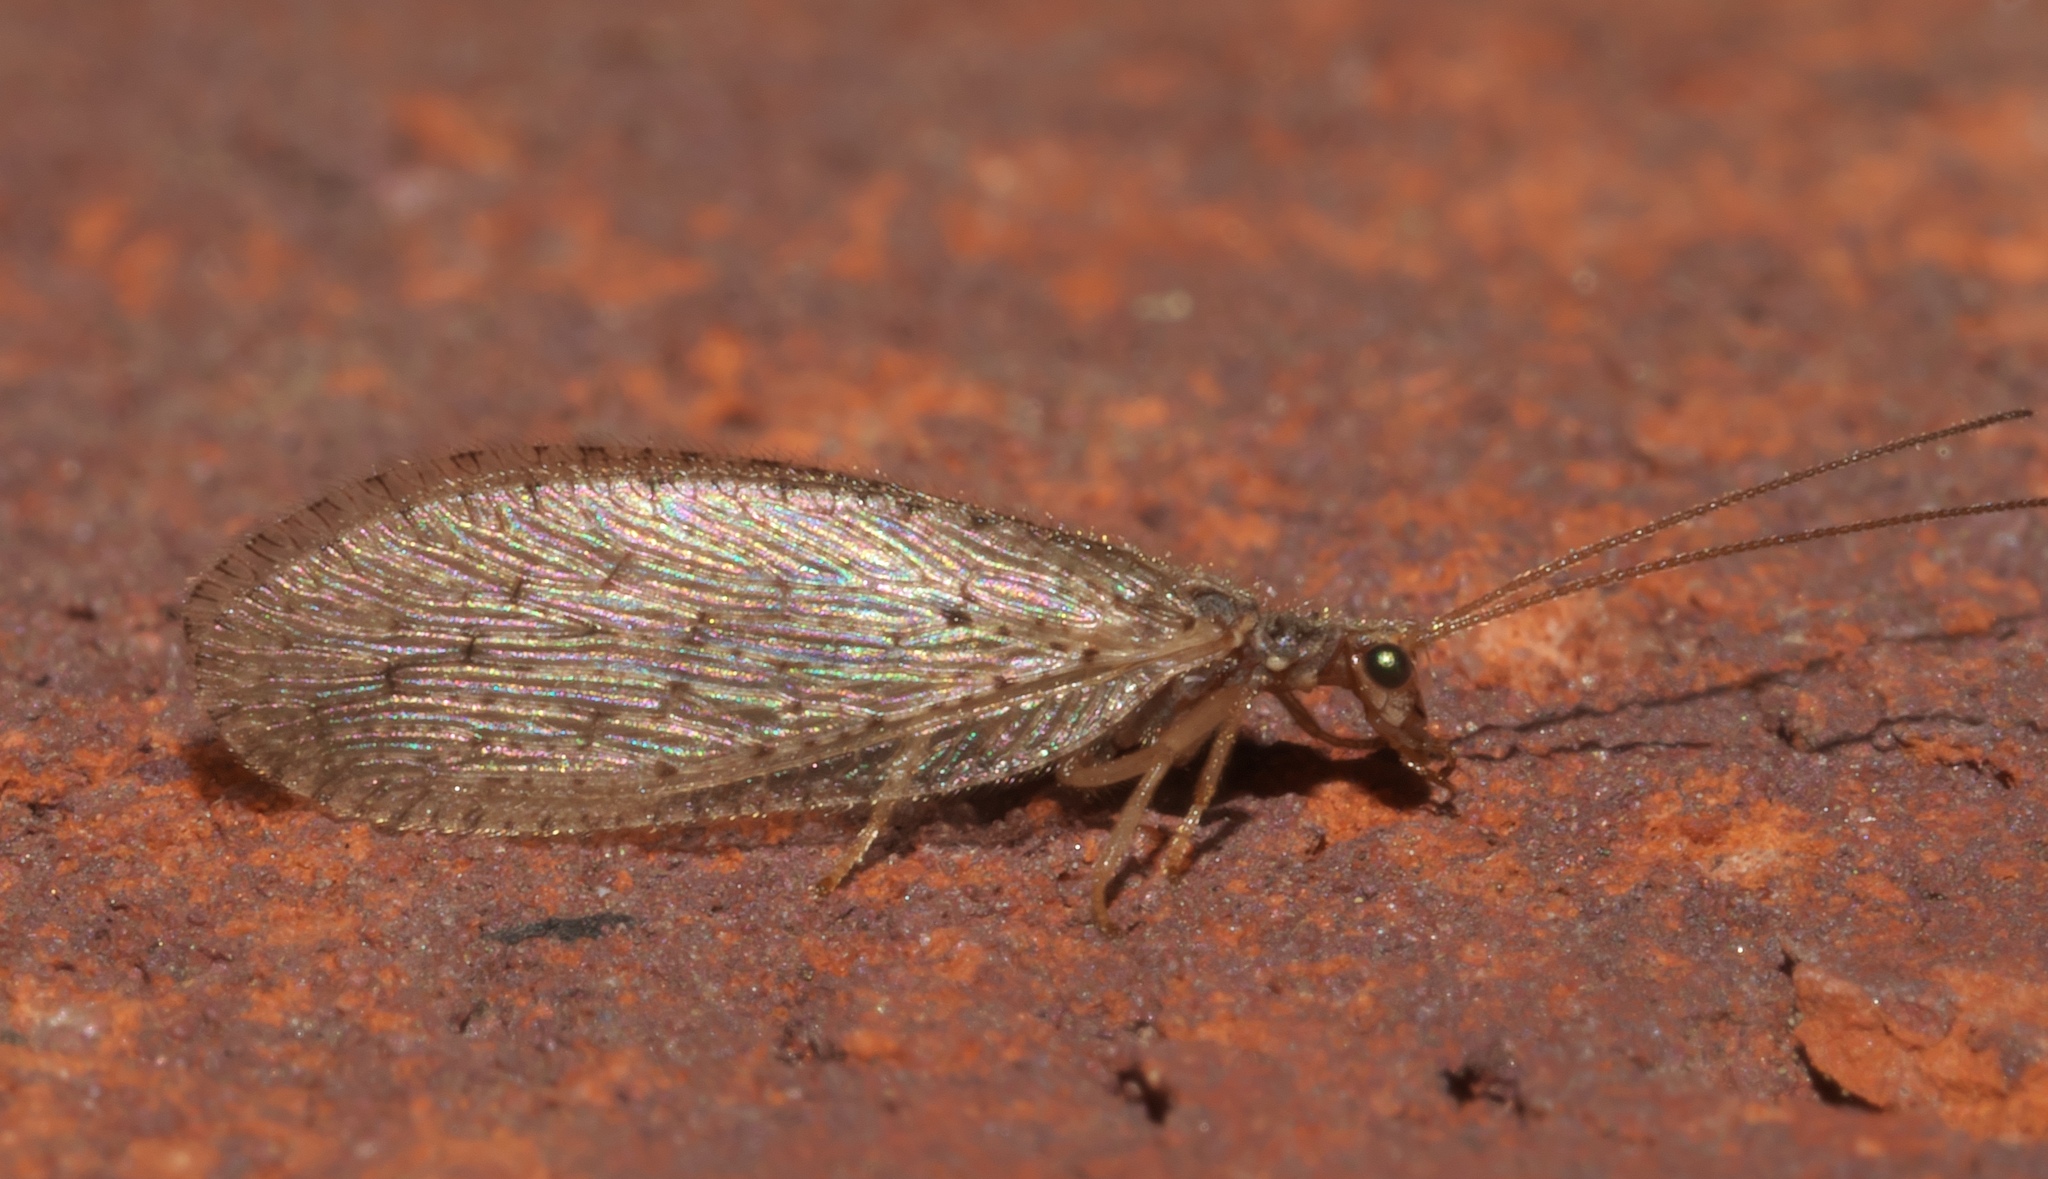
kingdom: Animalia
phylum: Arthropoda
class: Insecta
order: Neuroptera
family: Hemerobiidae
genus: Micromus
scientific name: Micromus subanticus
